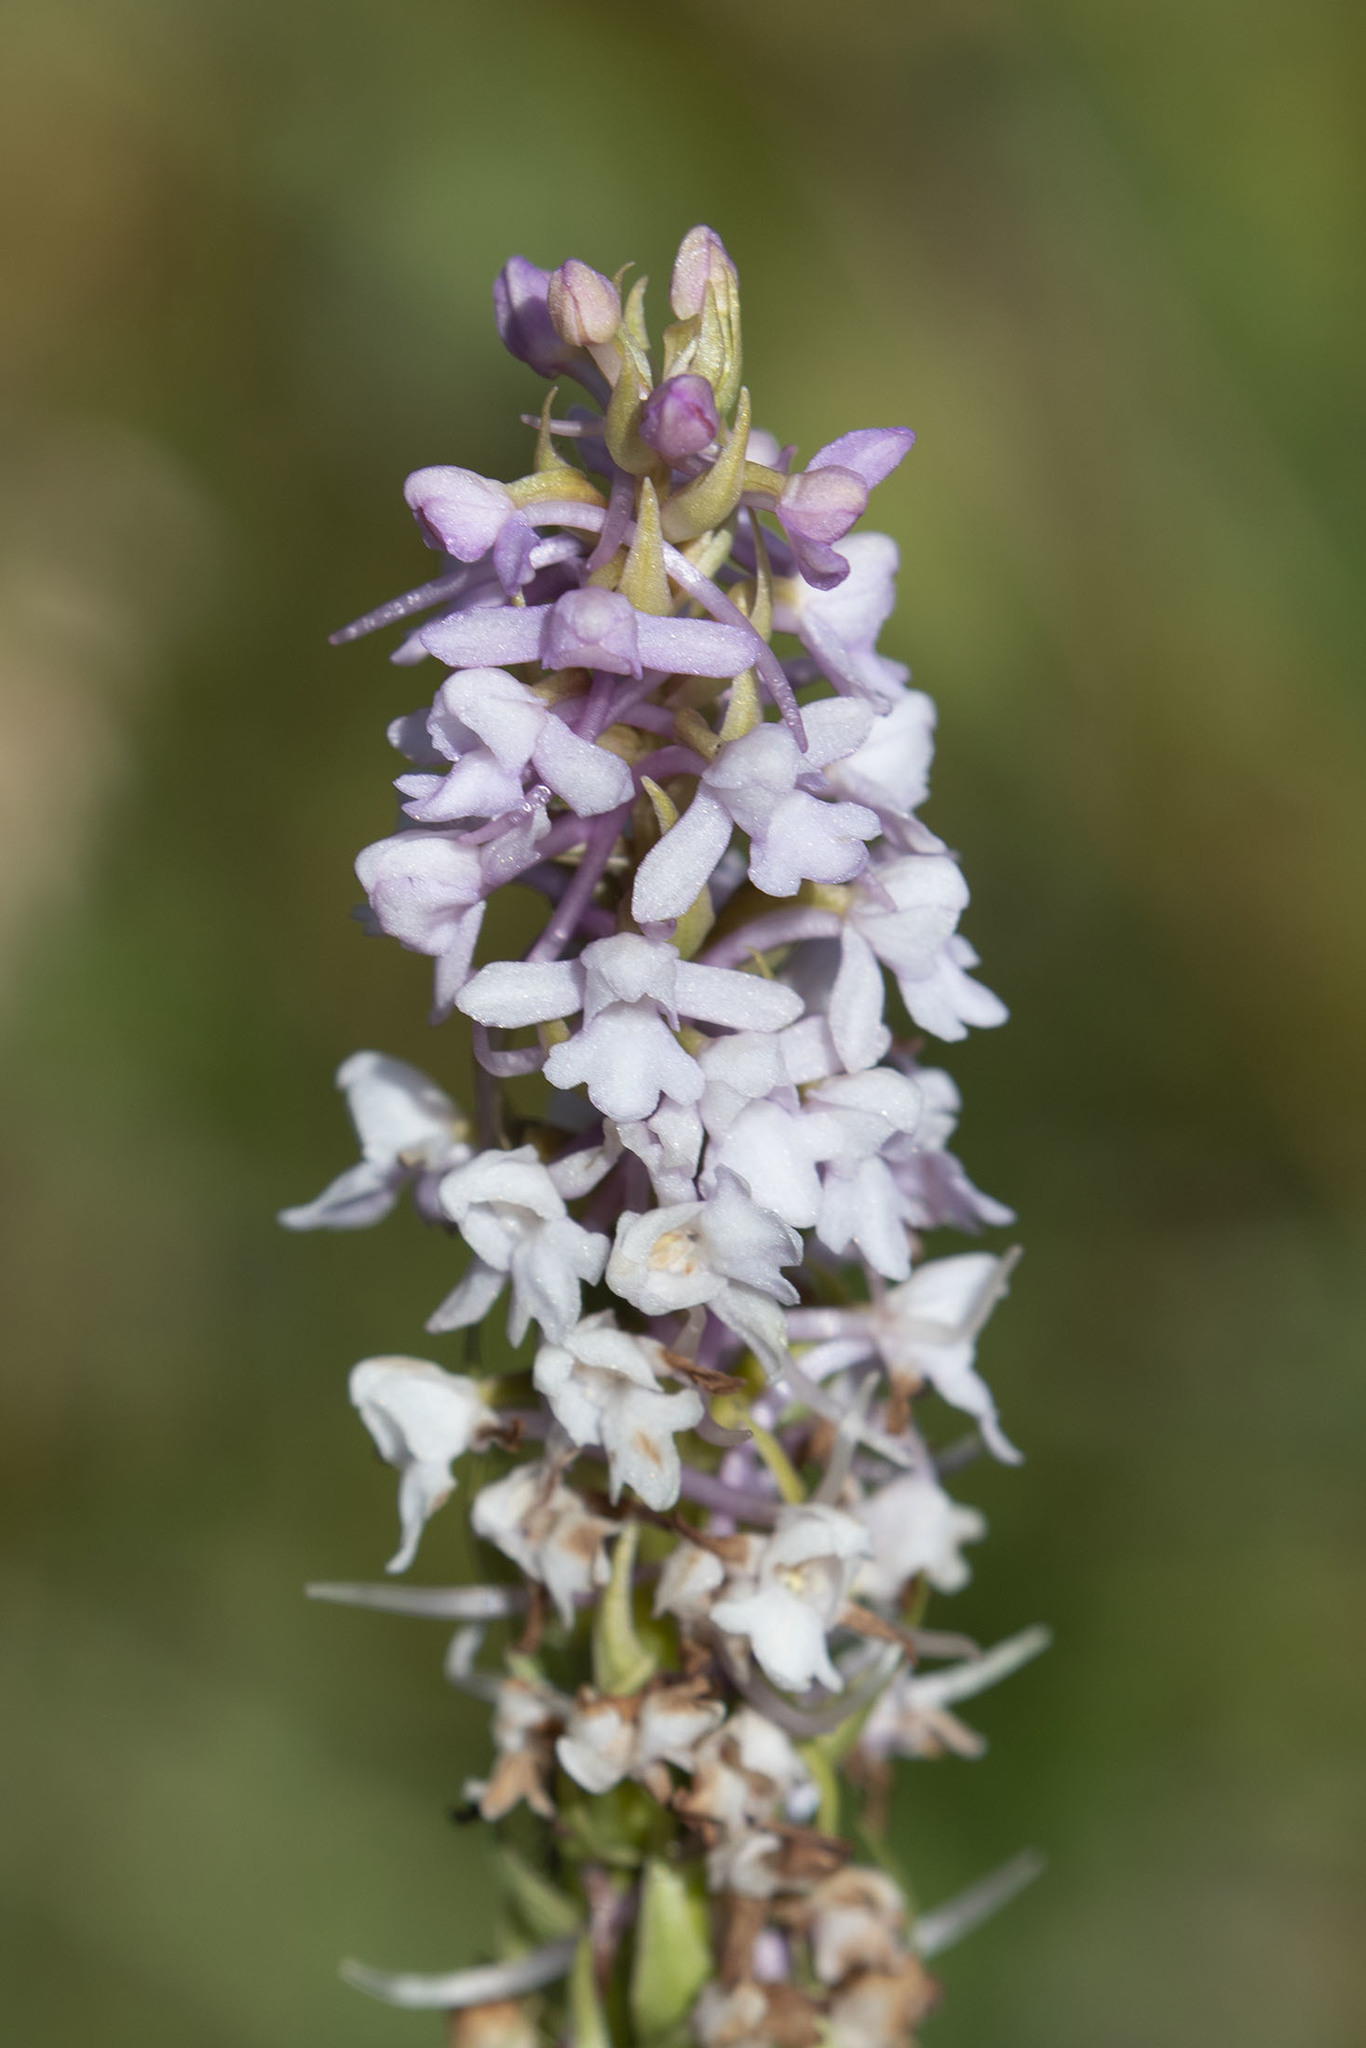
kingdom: Plantae
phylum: Tracheophyta
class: Liliopsida
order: Asparagales
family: Orchidaceae
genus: Gymnadenia
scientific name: Gymnadenia conopsea
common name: Fragrant orchid
